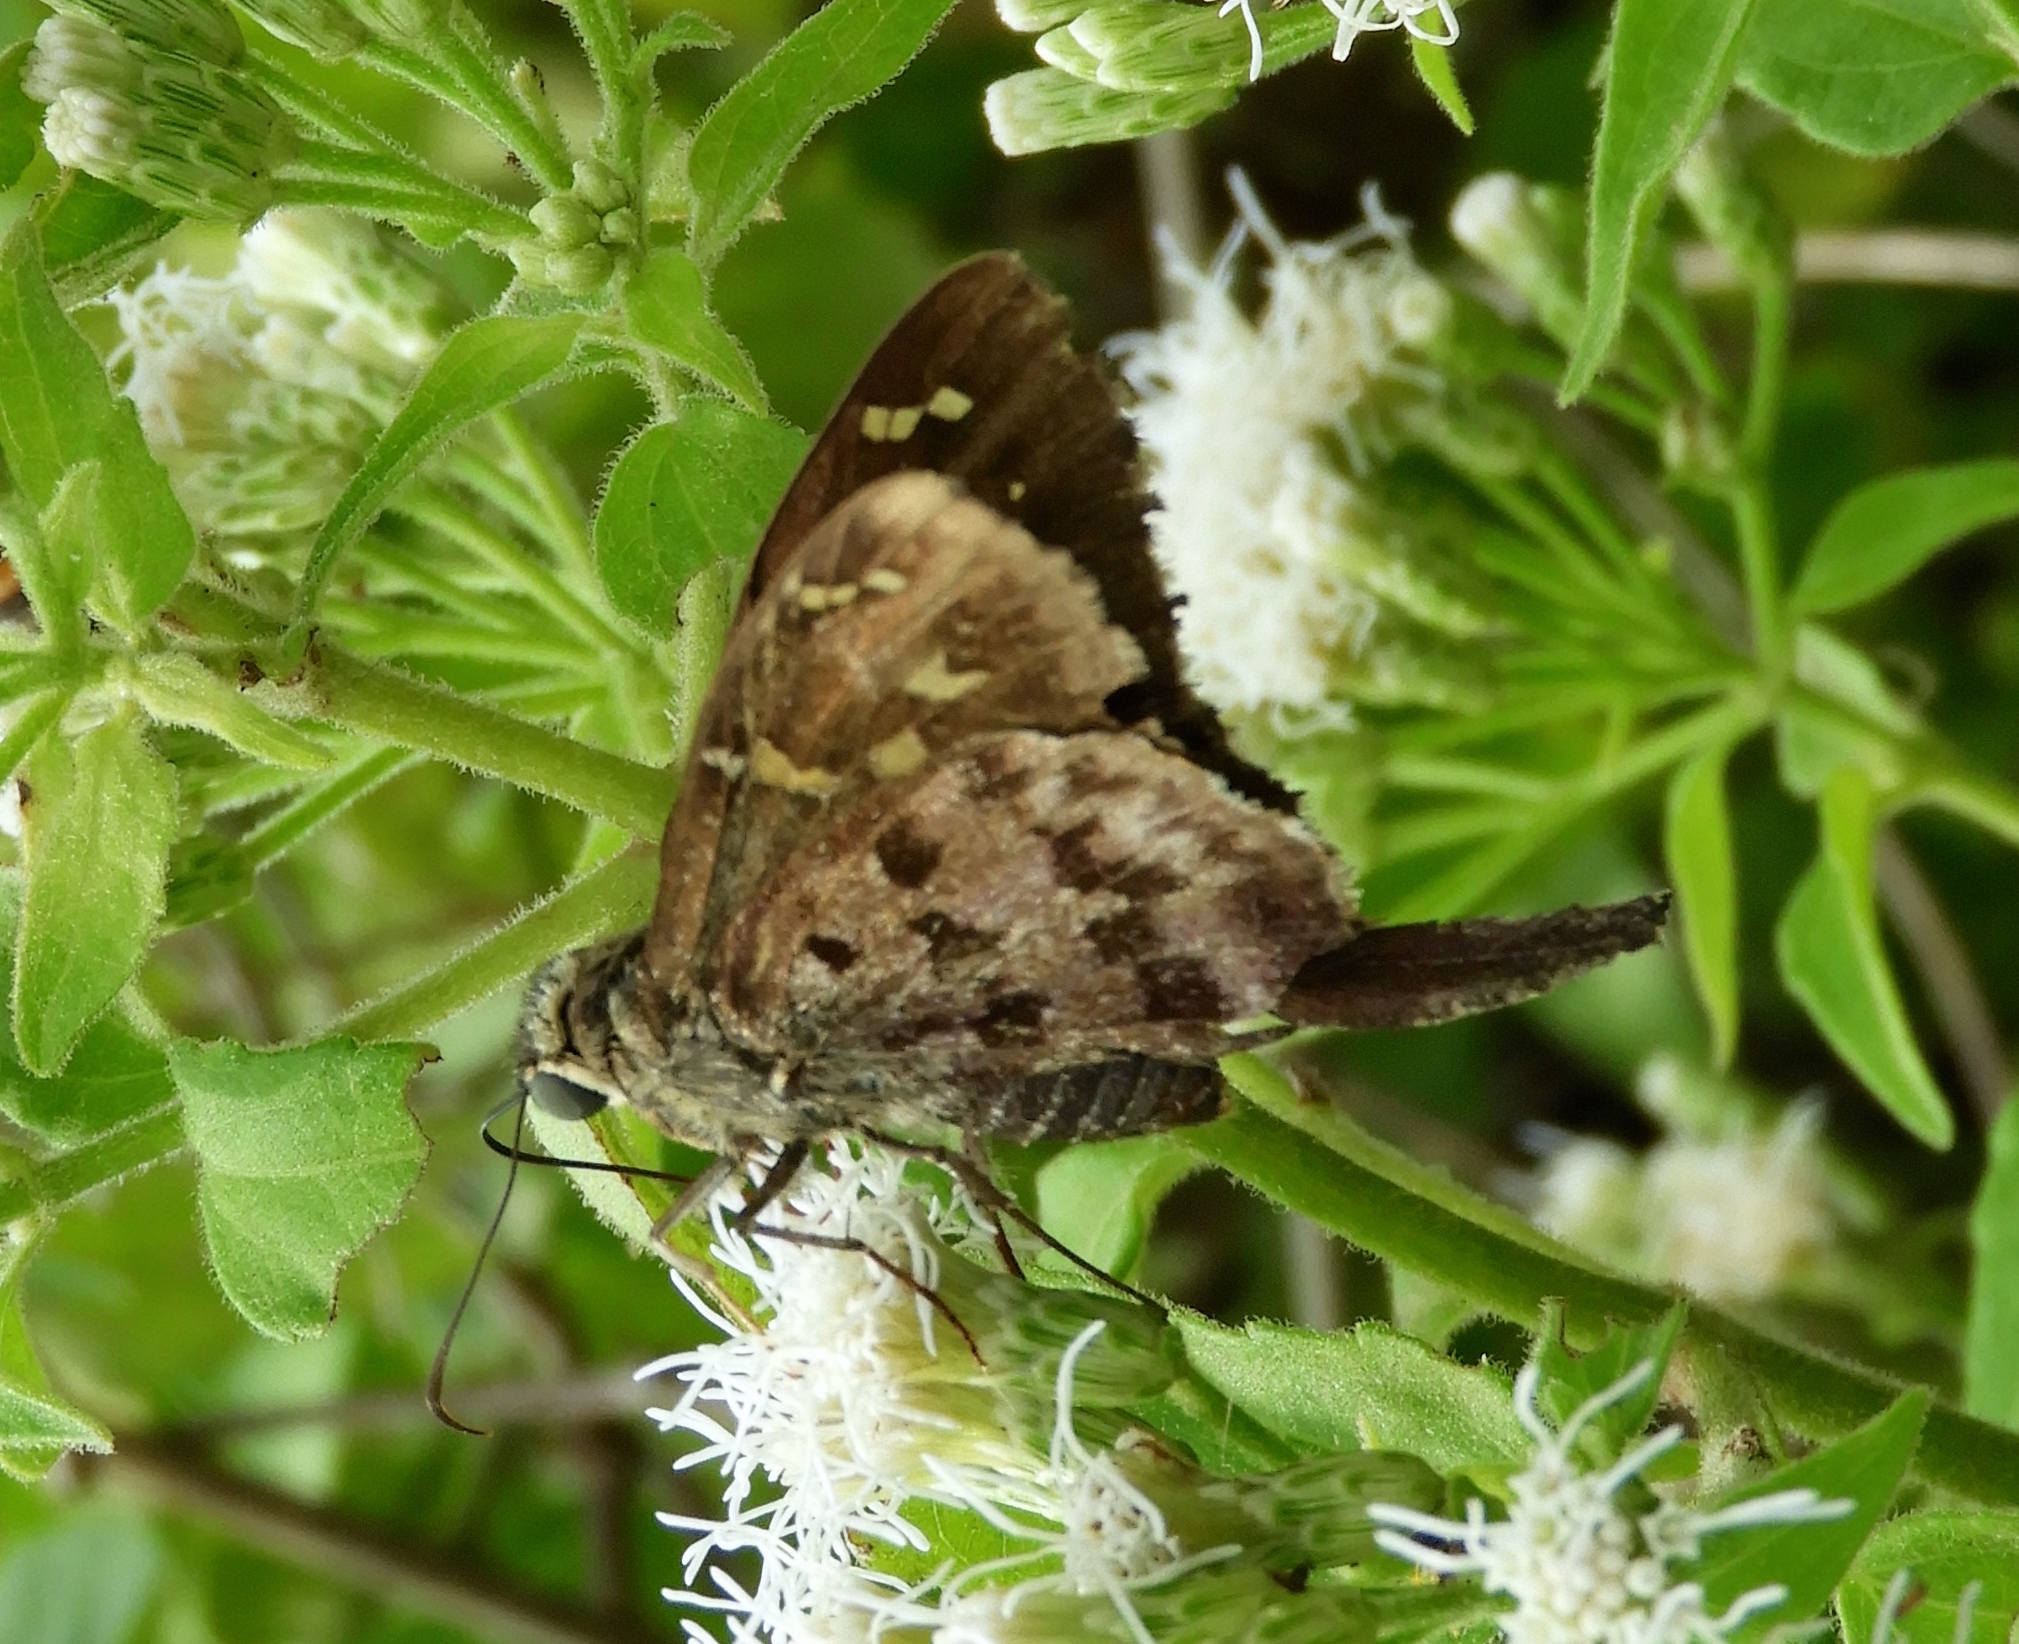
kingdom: Animalia
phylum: Arthropoda
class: Insecta
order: Lepidoptera
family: Hesperiidae
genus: Thorybes
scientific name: Thorybes
